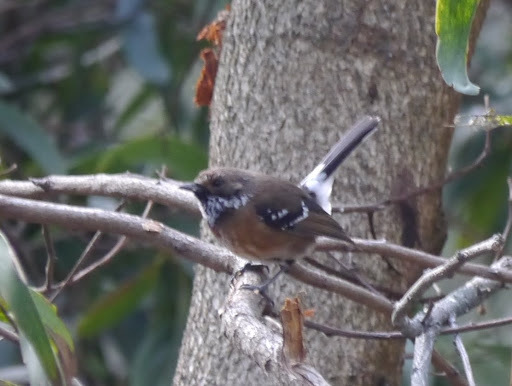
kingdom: Animalia
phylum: Chordata
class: Aves
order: Passeriformes
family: Monarchidae
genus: Chasiempis
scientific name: Chasiempis sandwichensis
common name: Hawaii elepaio
